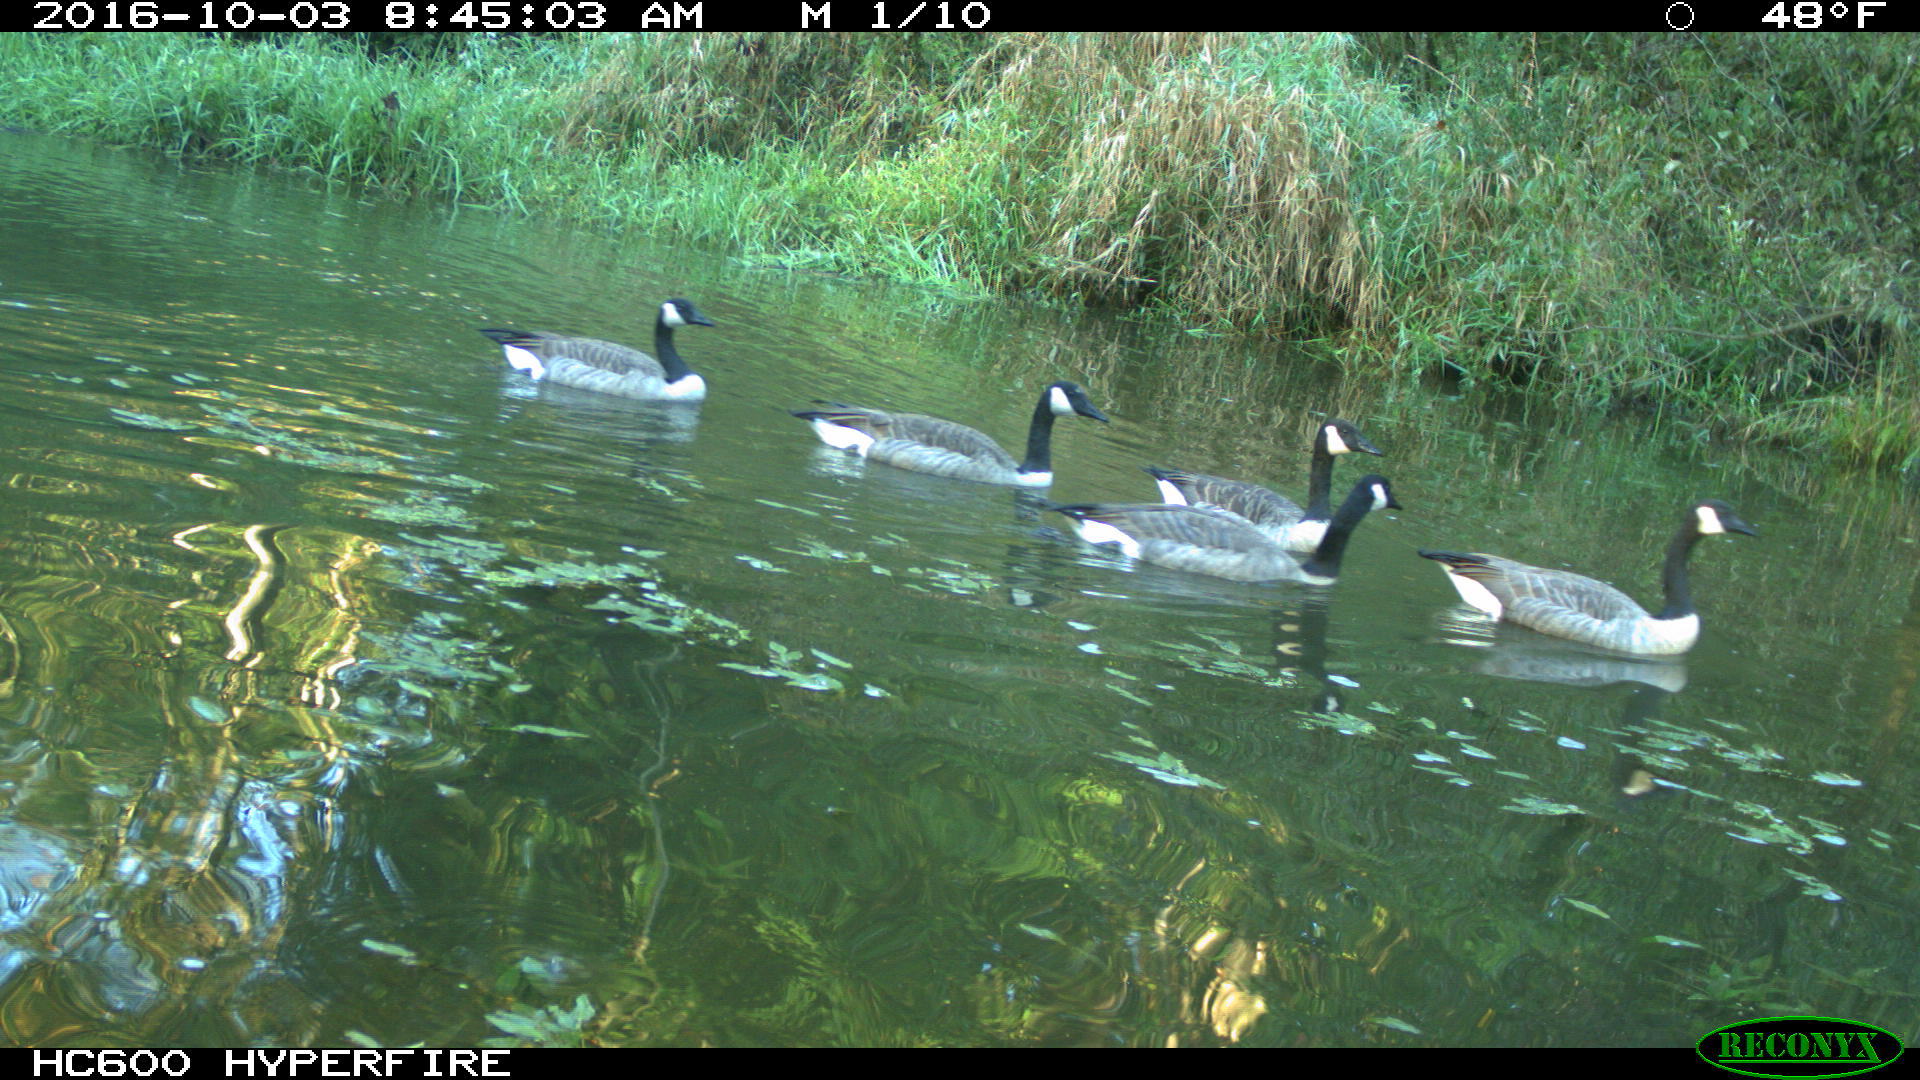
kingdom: Animalia
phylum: Chordata
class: Aves
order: Anseriformes
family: Anatidae
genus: Branta
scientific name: Branta canadensis
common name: Canada goose
